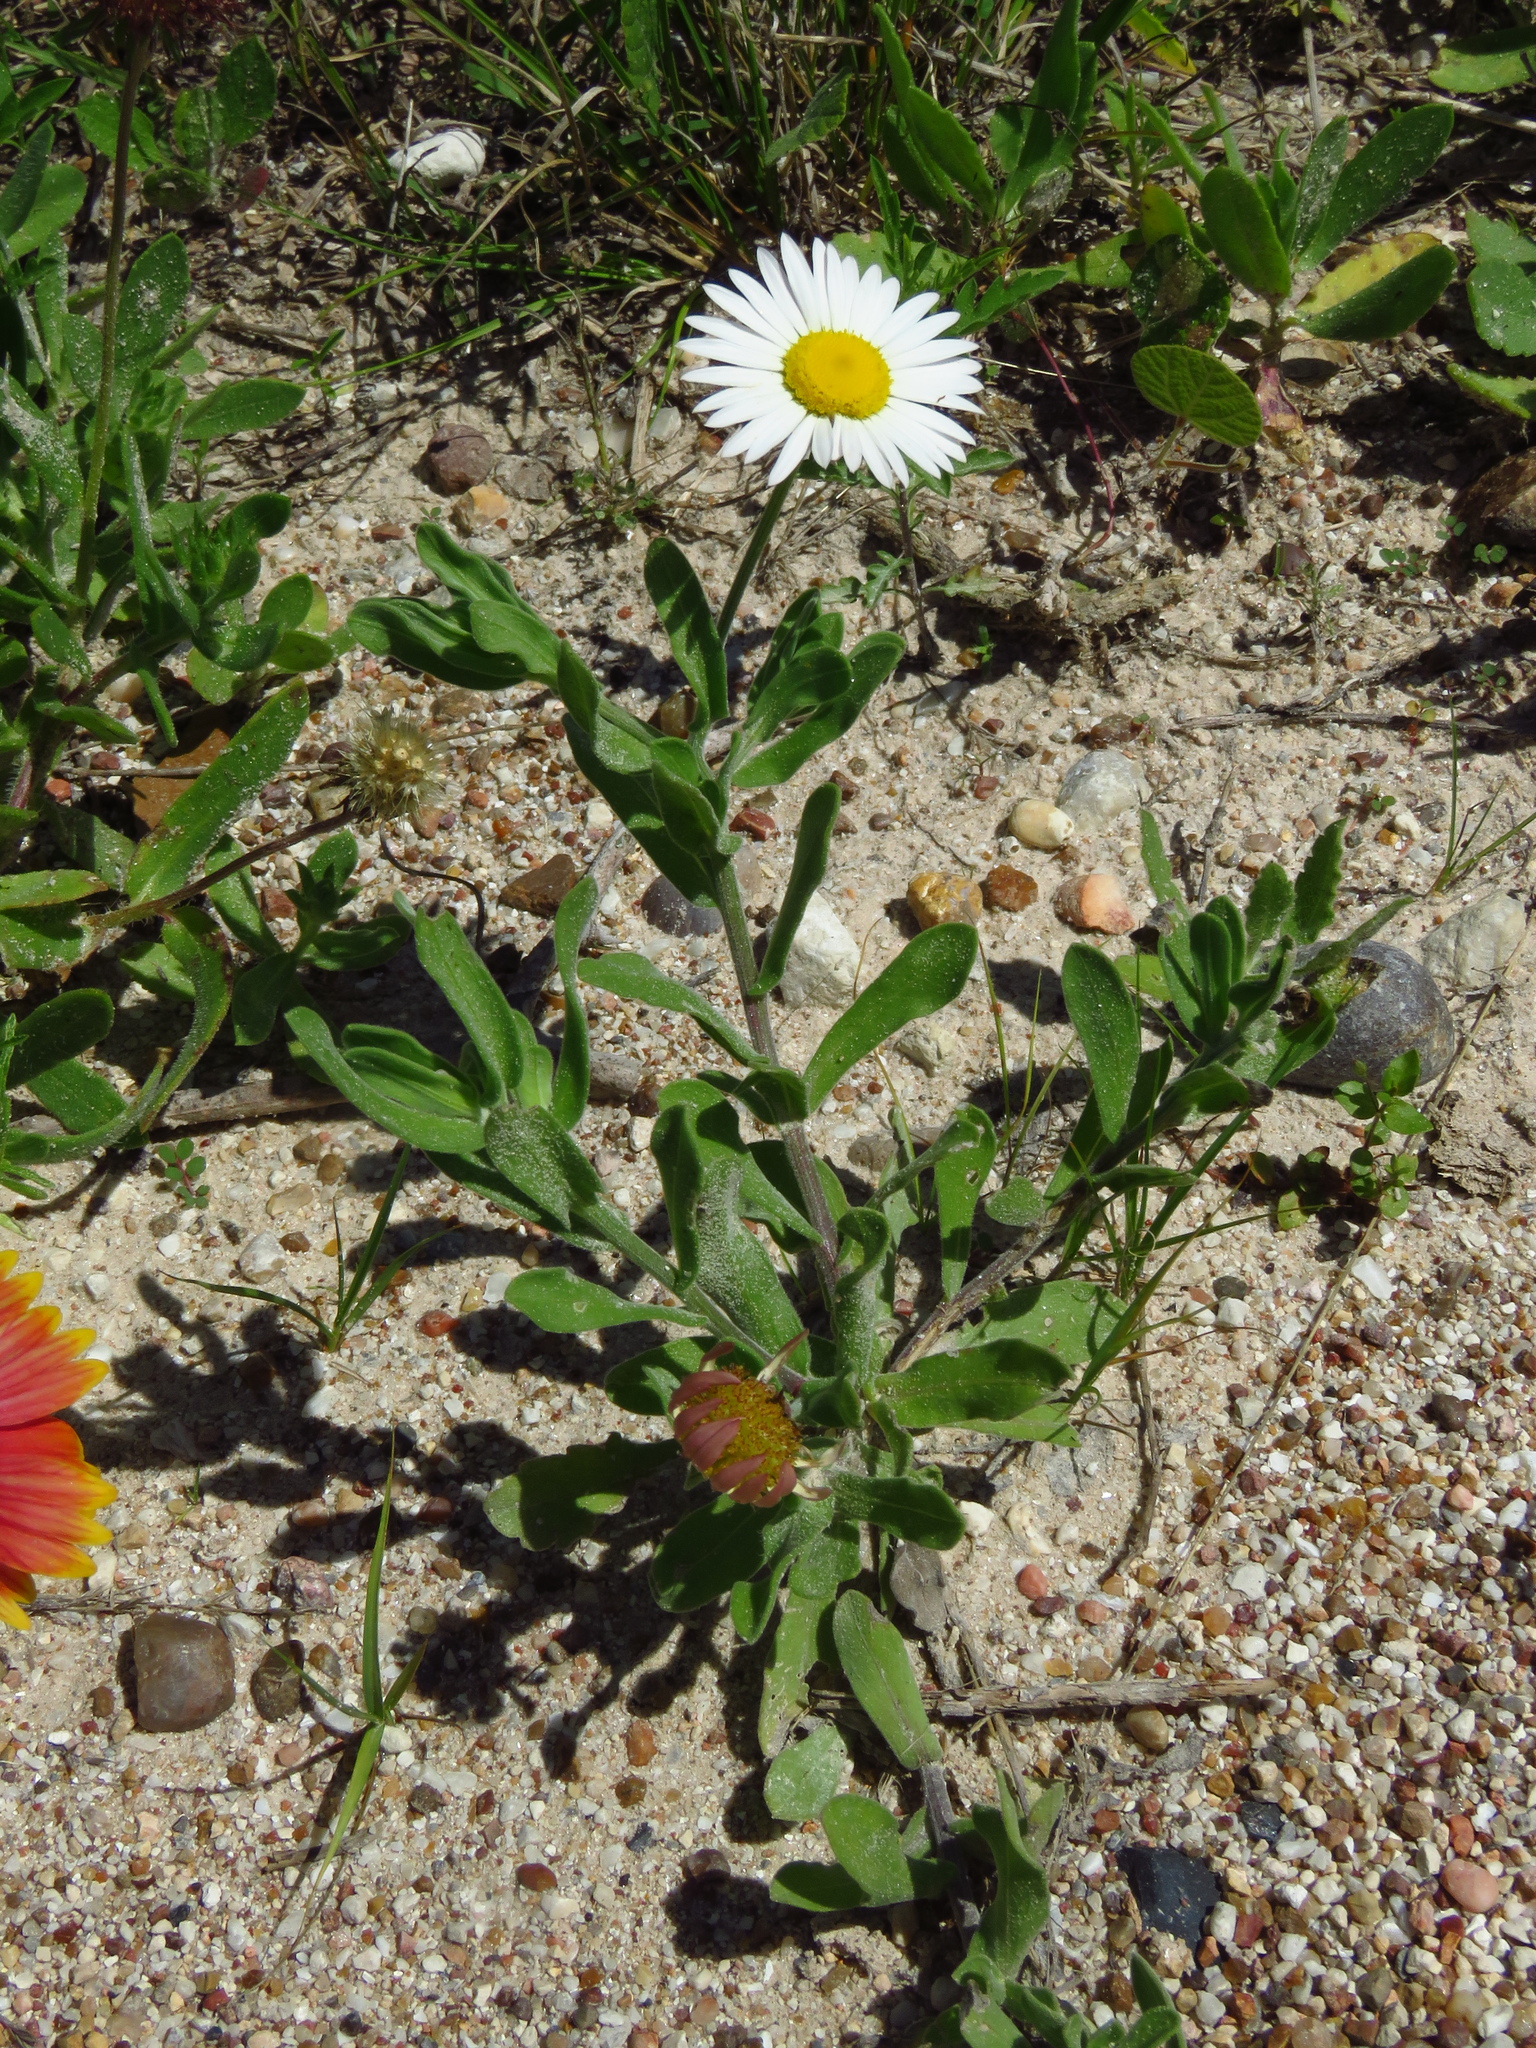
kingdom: Plantae
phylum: Tracheophyta
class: Magnoliopsida
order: Asterales
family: Asteraceae
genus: Aphanostephus
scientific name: Aphanostephus skirrhobasis
